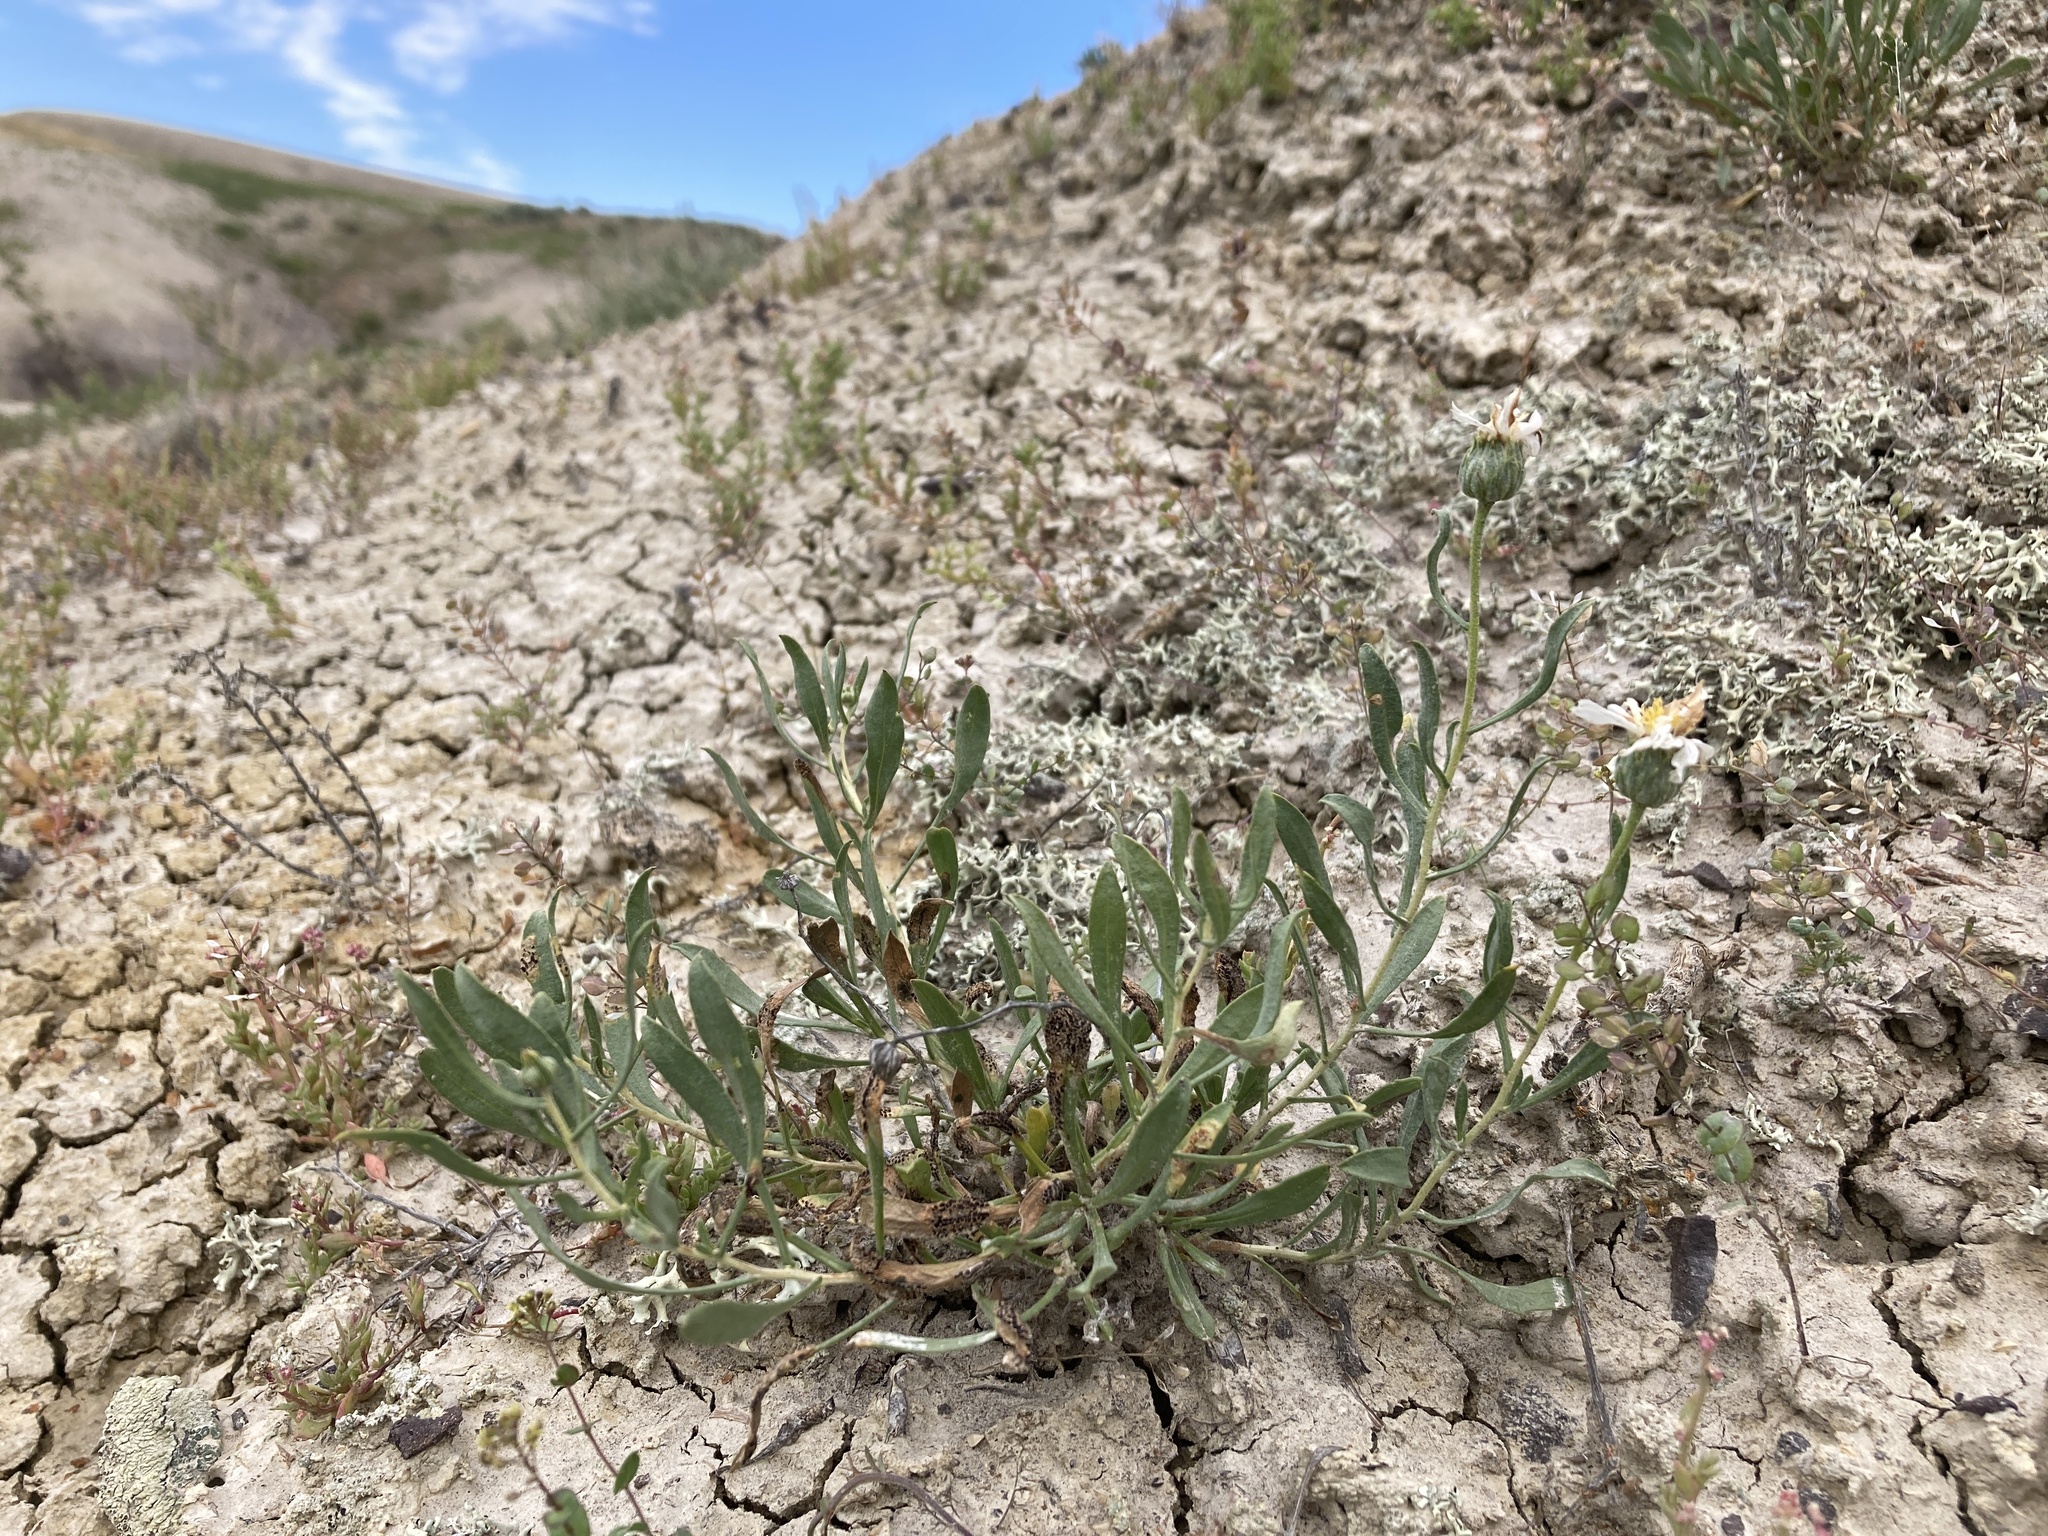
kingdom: Plantae
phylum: Tracheophyta
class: Magnoliopsida
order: Asterales
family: Asteraceae
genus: Xylorhiza
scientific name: Xylorhiza glabriuscula
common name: Smooth woody-aster
